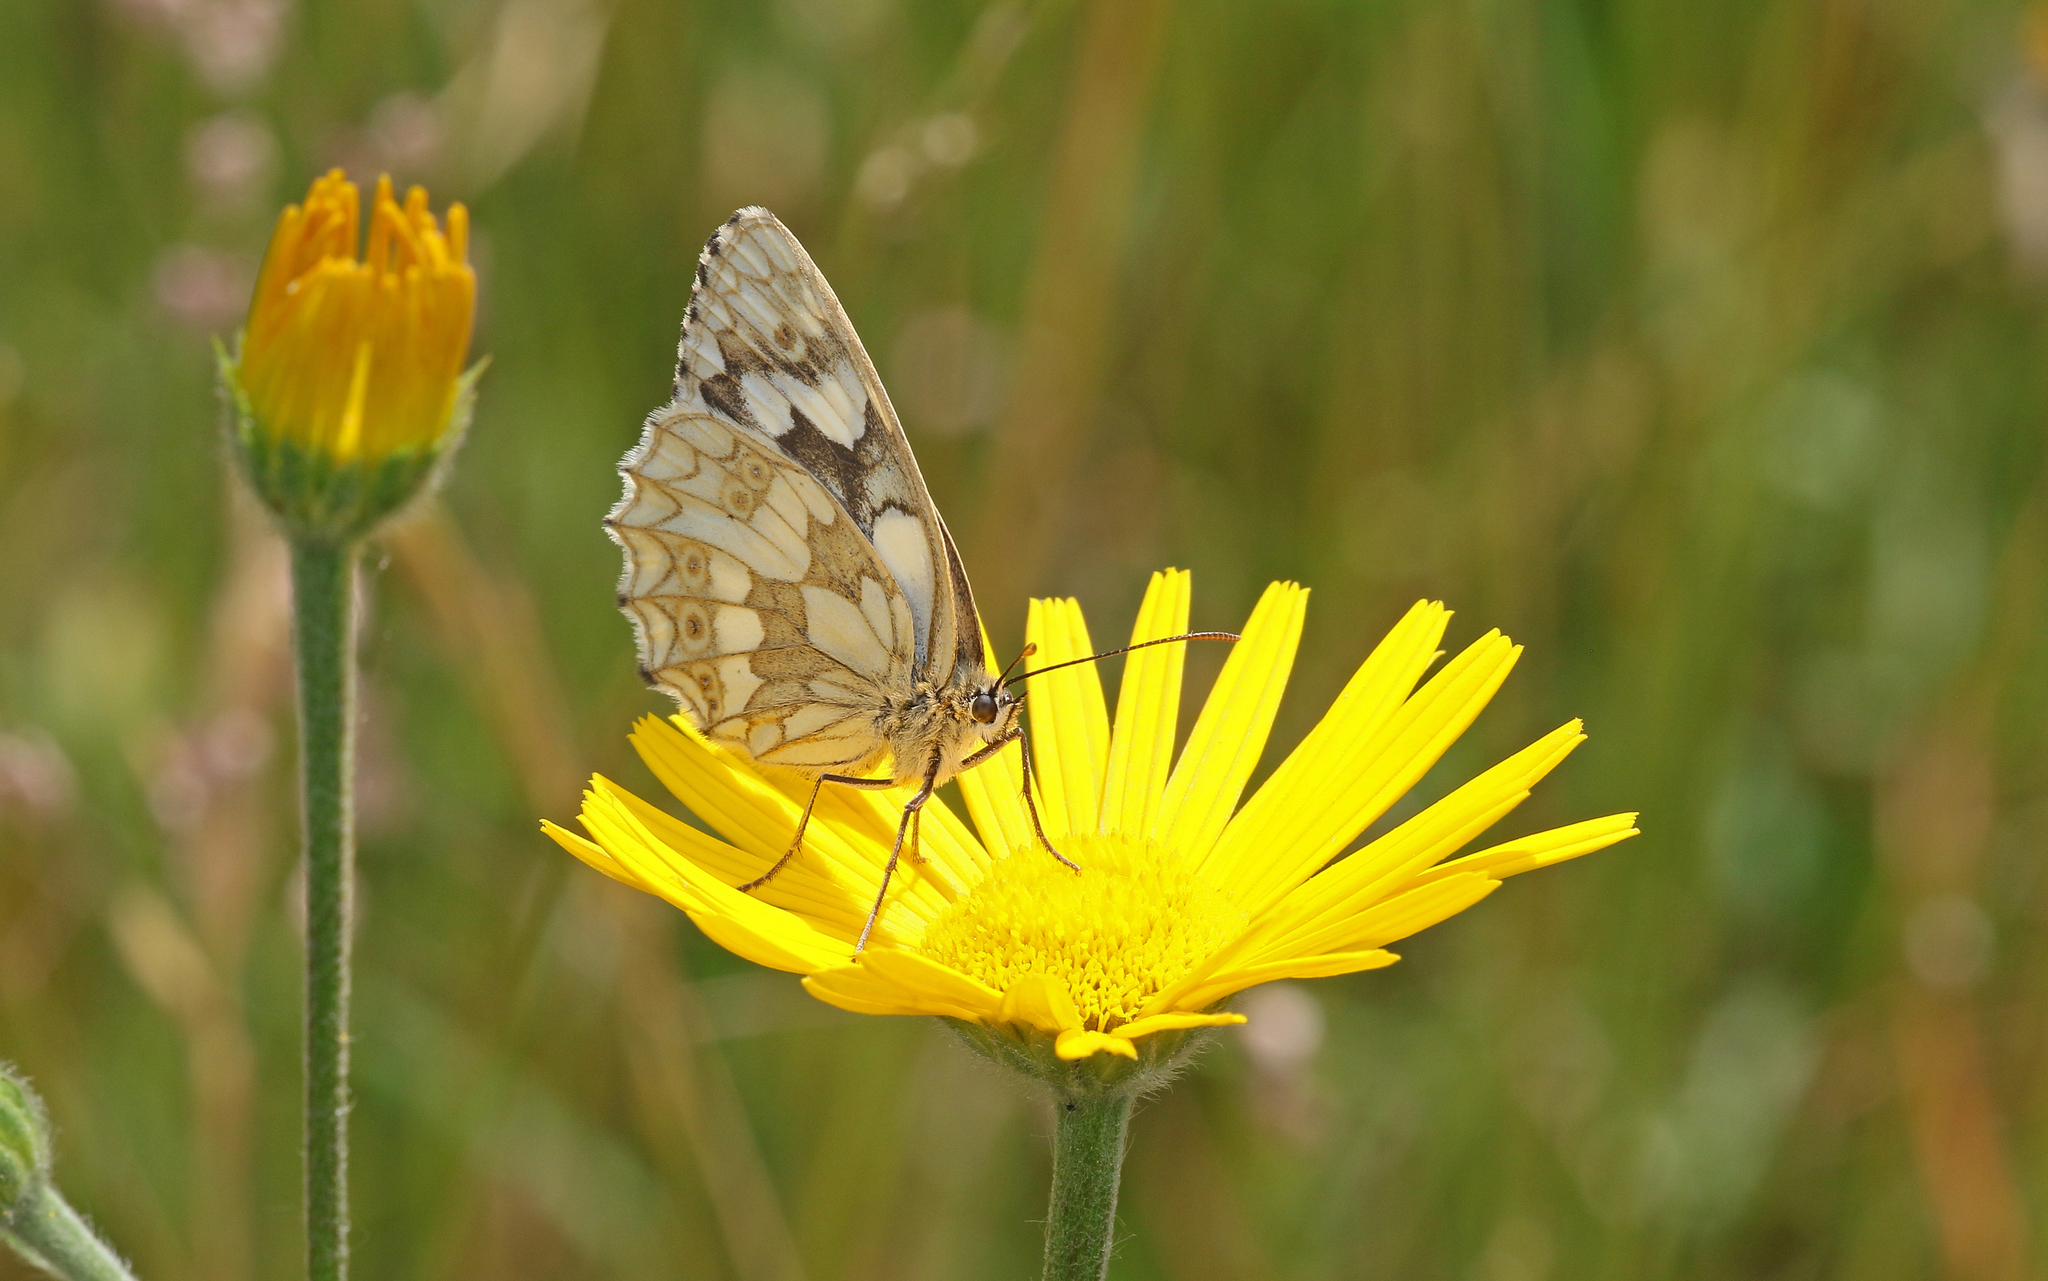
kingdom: Animalia
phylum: Arthropoda
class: Insecta
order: Lepidoptera
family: Nymphalidae
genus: Melanargia
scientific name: Melanargia galathea
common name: Marbled white
